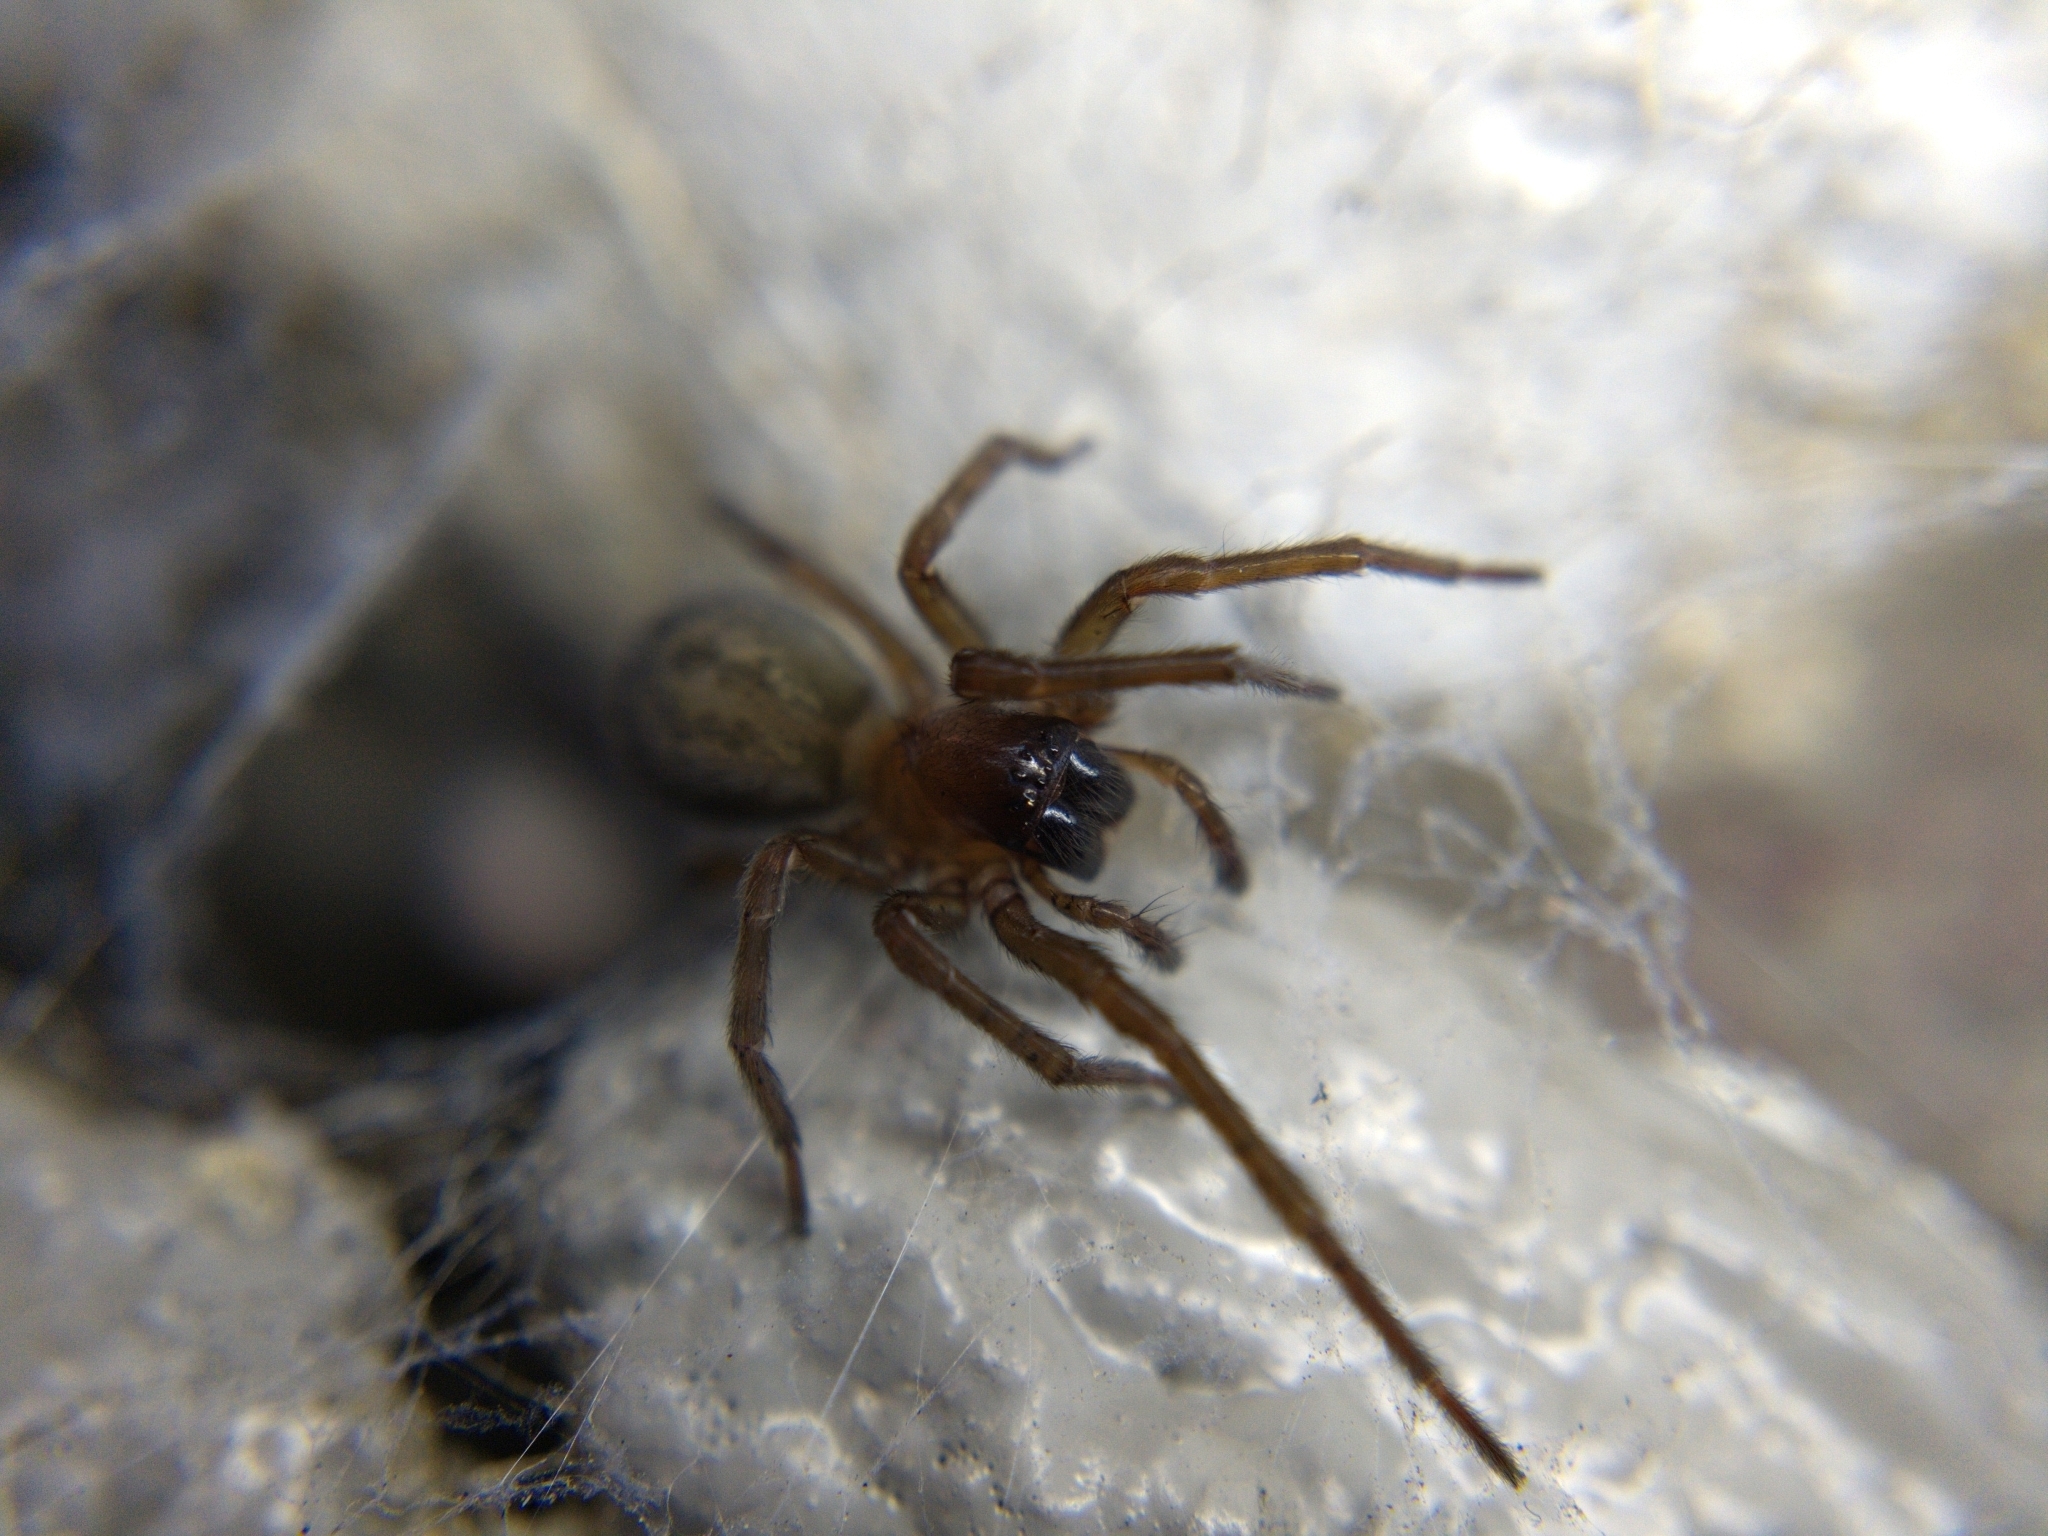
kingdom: Animalia
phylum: Arthropoda
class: Arachnida
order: Araneae
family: Amaurobiidae
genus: Amaurobius
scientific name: Amaurobius ferox
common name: Black laceweaver
